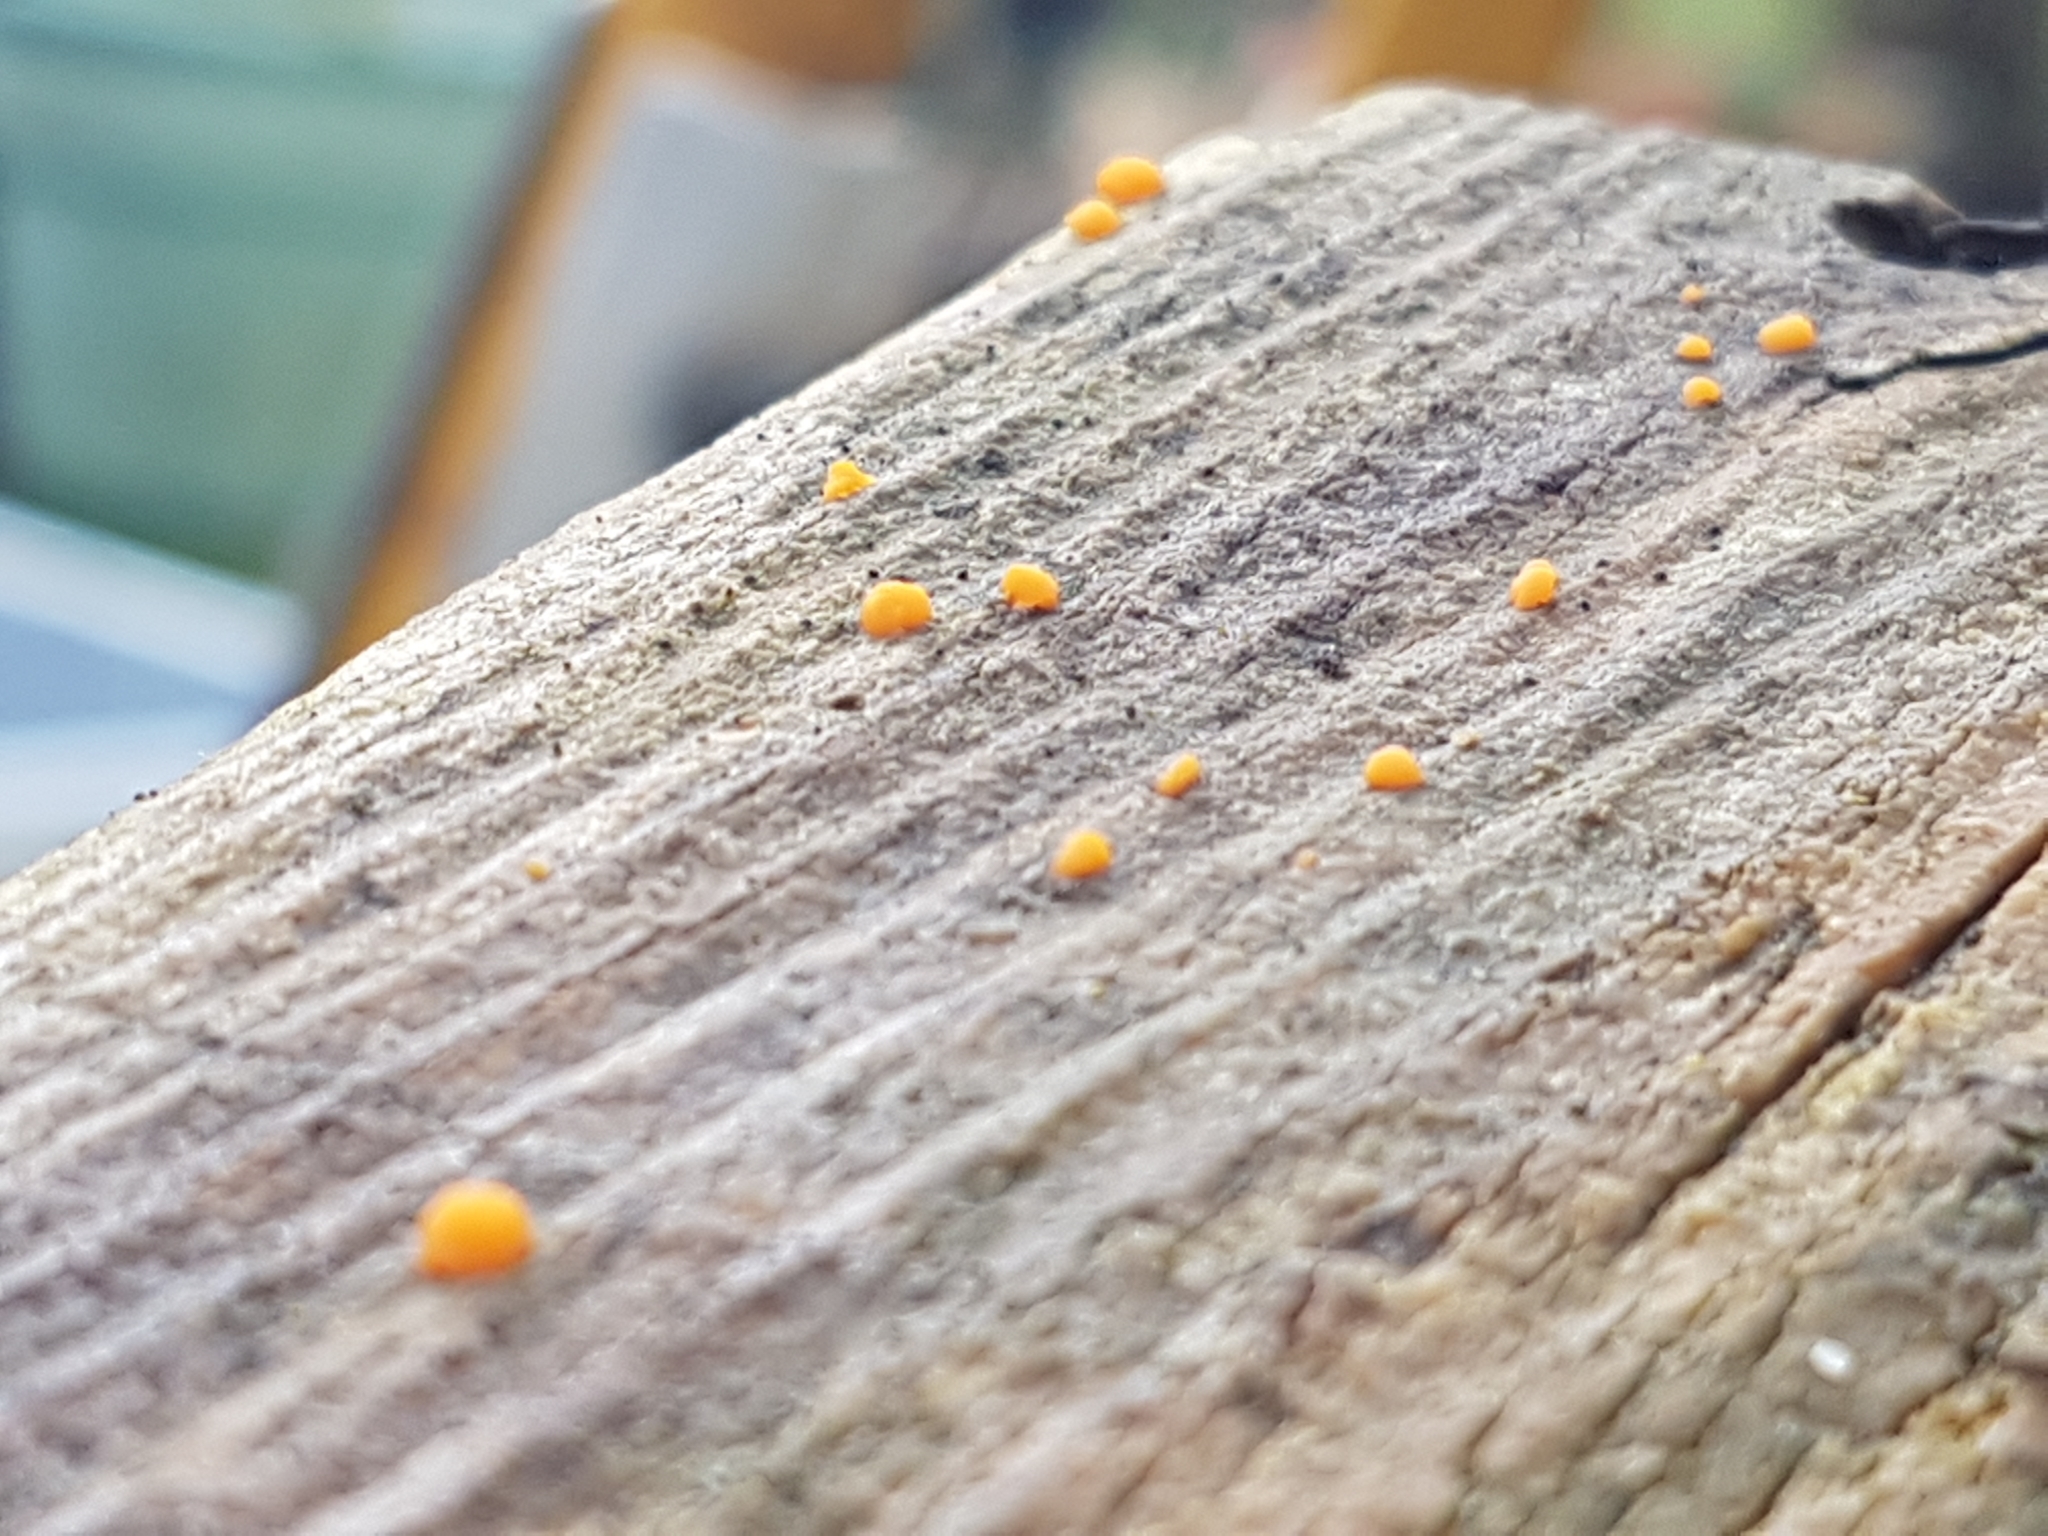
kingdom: Fungi
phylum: Basidiomycota
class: Dacrymycetes
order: Dacrymycetales
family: Dacrymycetaceae
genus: Dacrymyces
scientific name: Dacrymyces stillatus
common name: Common jelly spot
